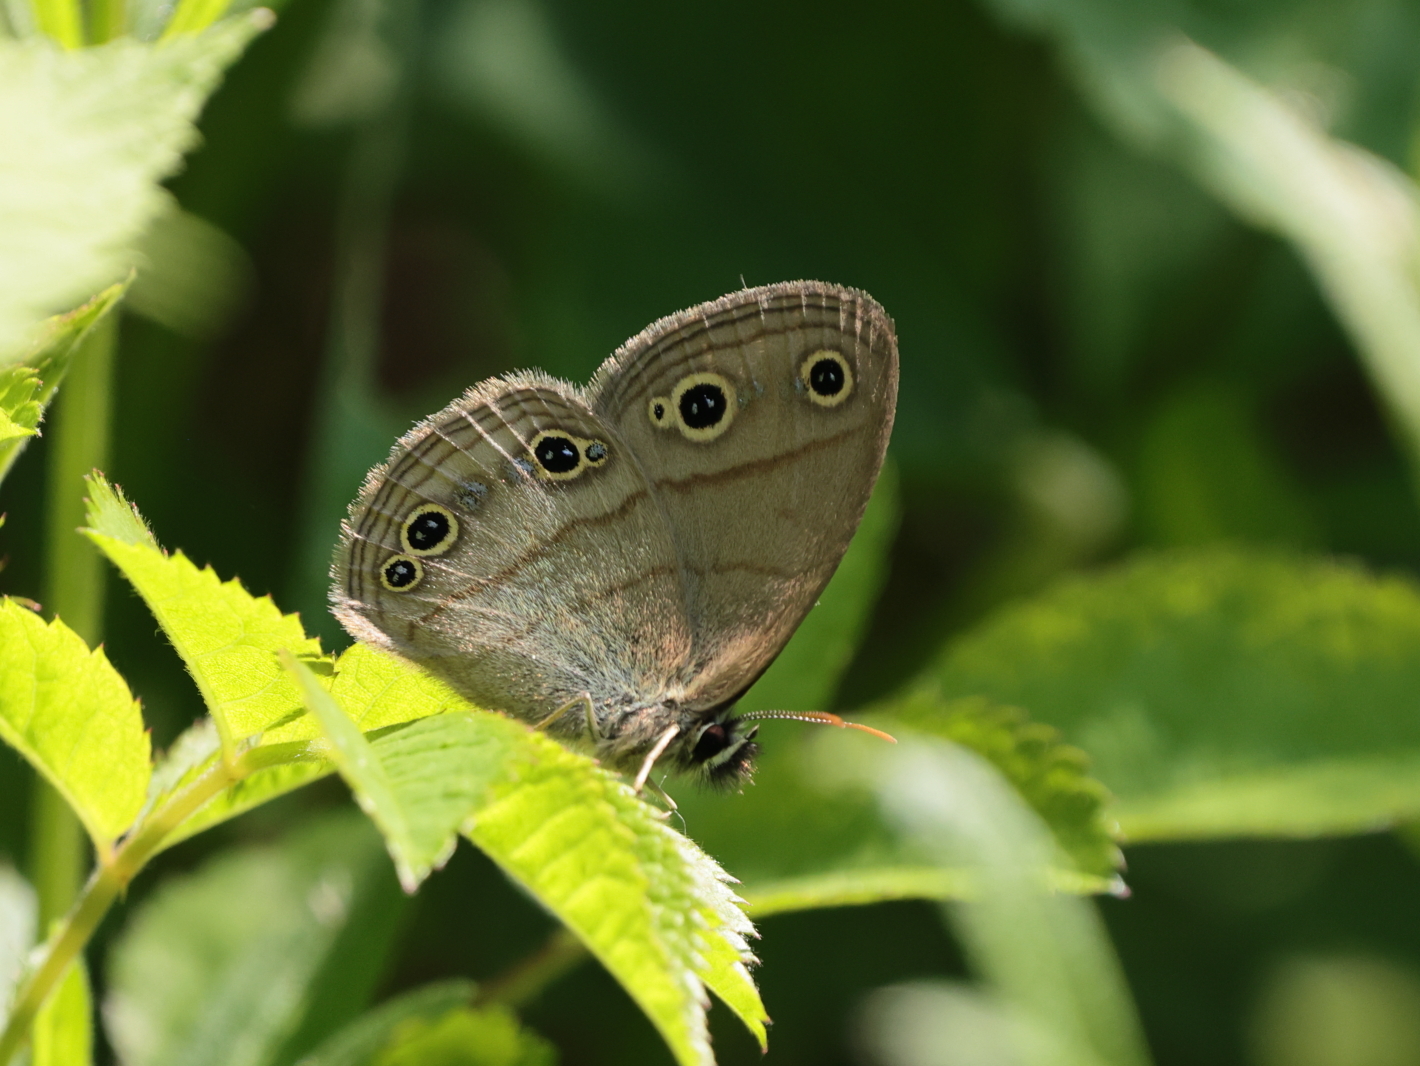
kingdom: Animalia
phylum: Arthropoda
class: Insecta
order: Lepidoptera
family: Nymphalidae
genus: Euptychia
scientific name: Euptychia cymela
